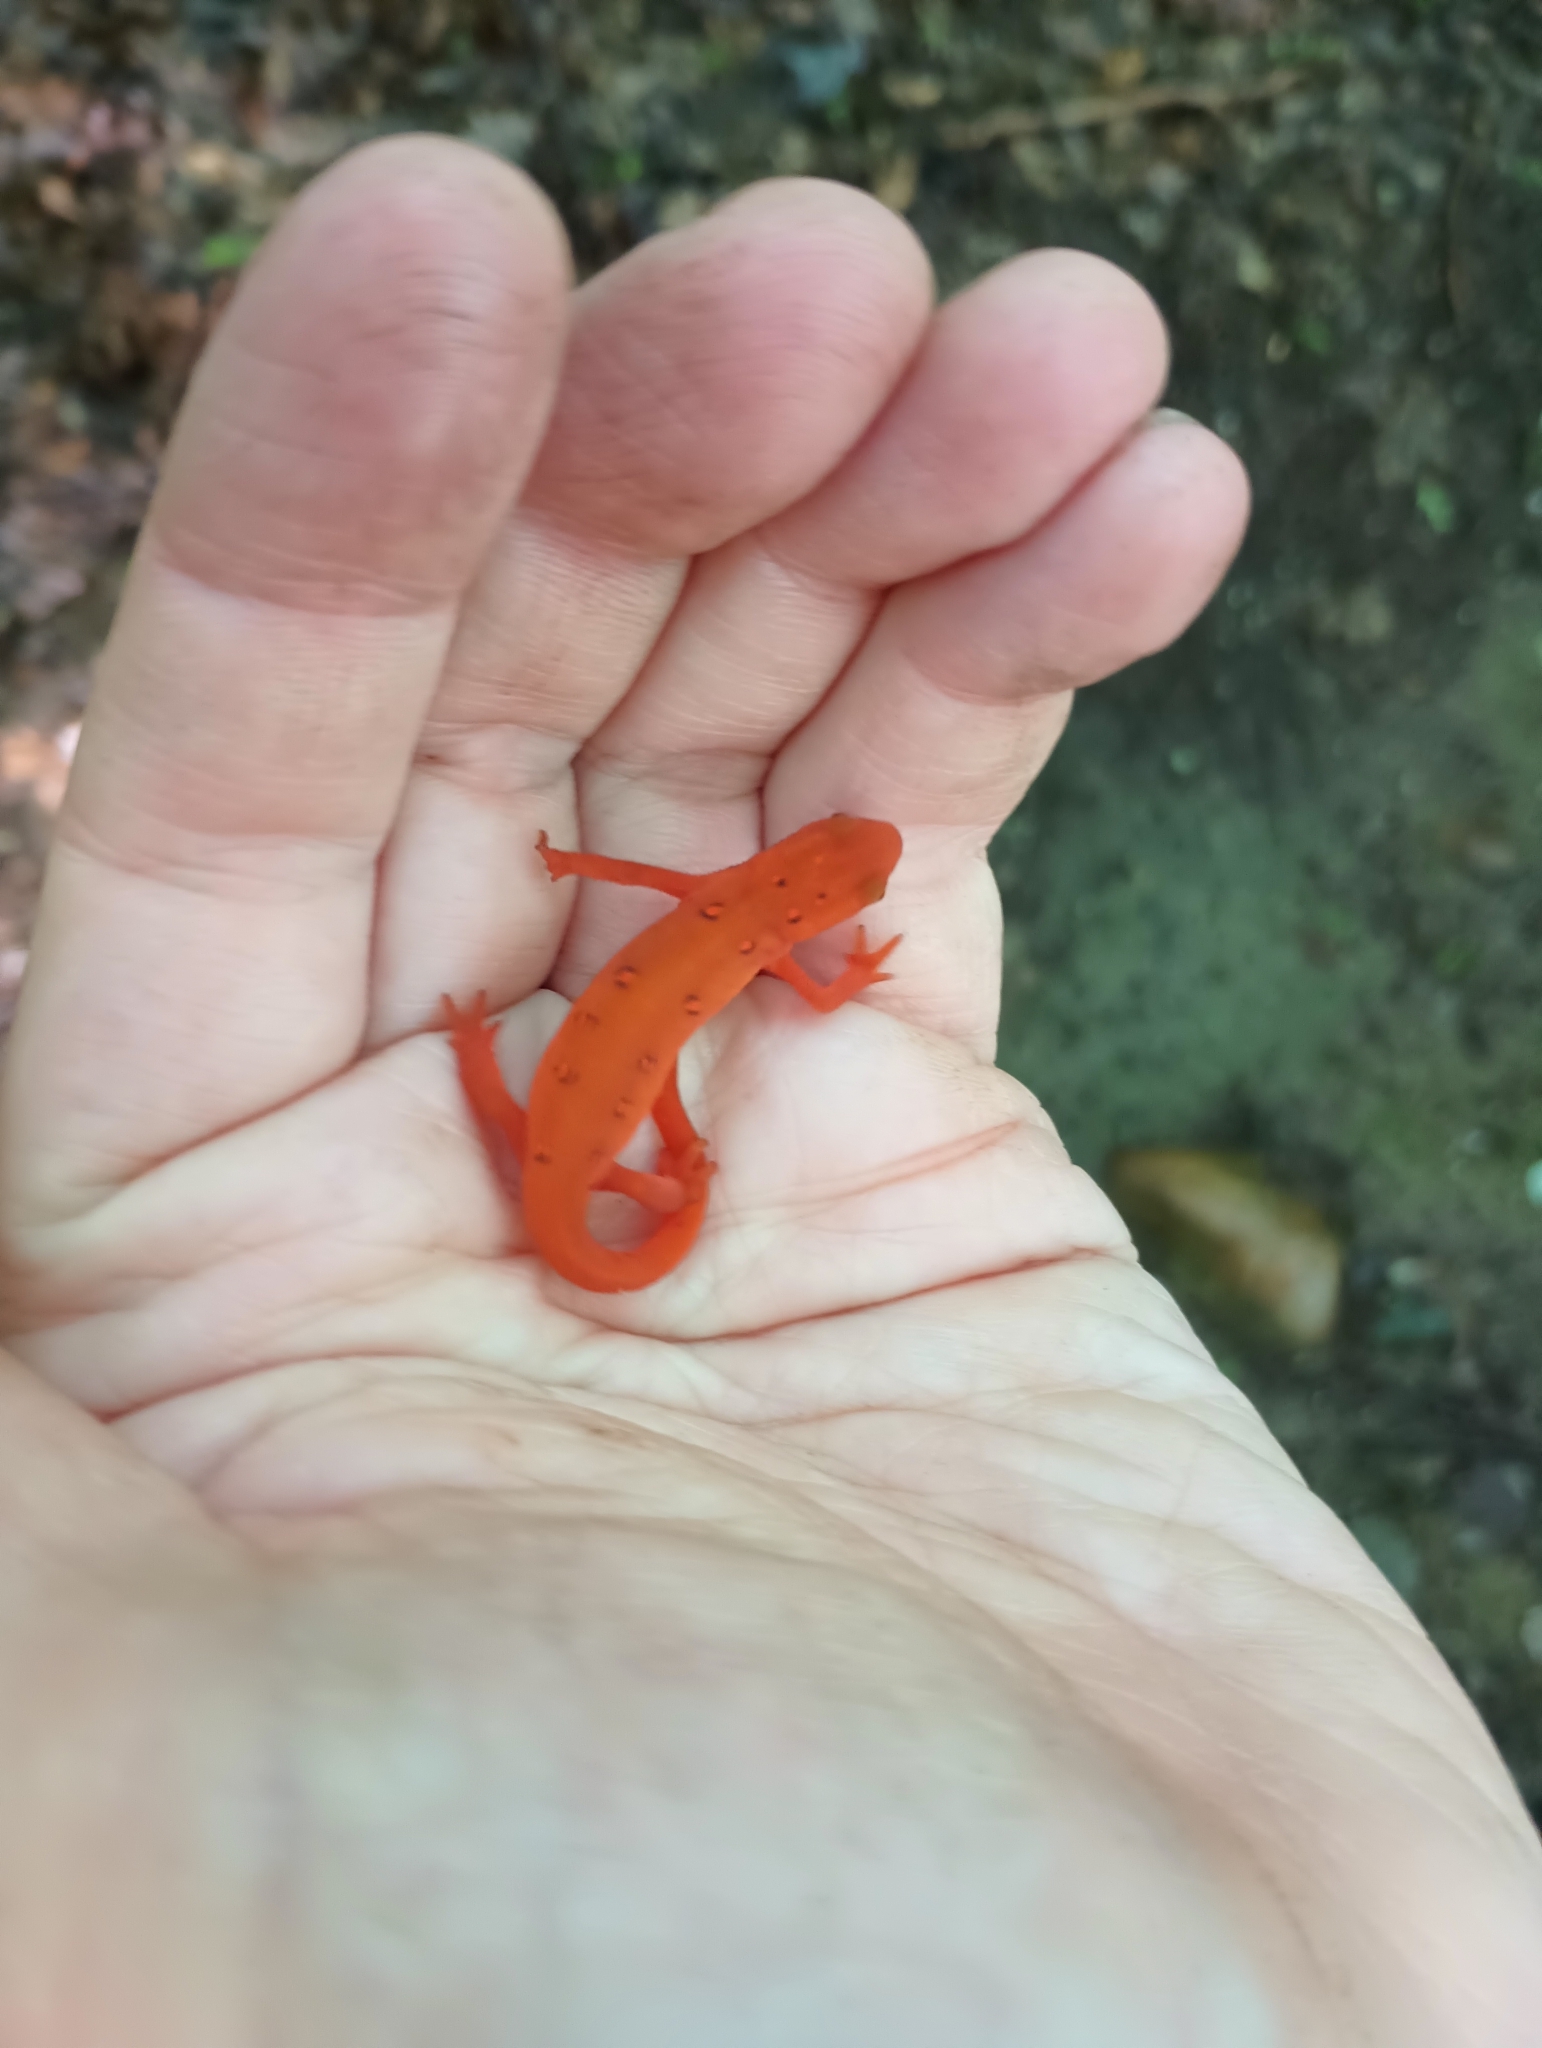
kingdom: Animalia
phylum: Chordata
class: Amphibia
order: Caudata
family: Salamandridae
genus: Notophthalmus
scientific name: Notophthalmus viridescens
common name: Eastern newt
